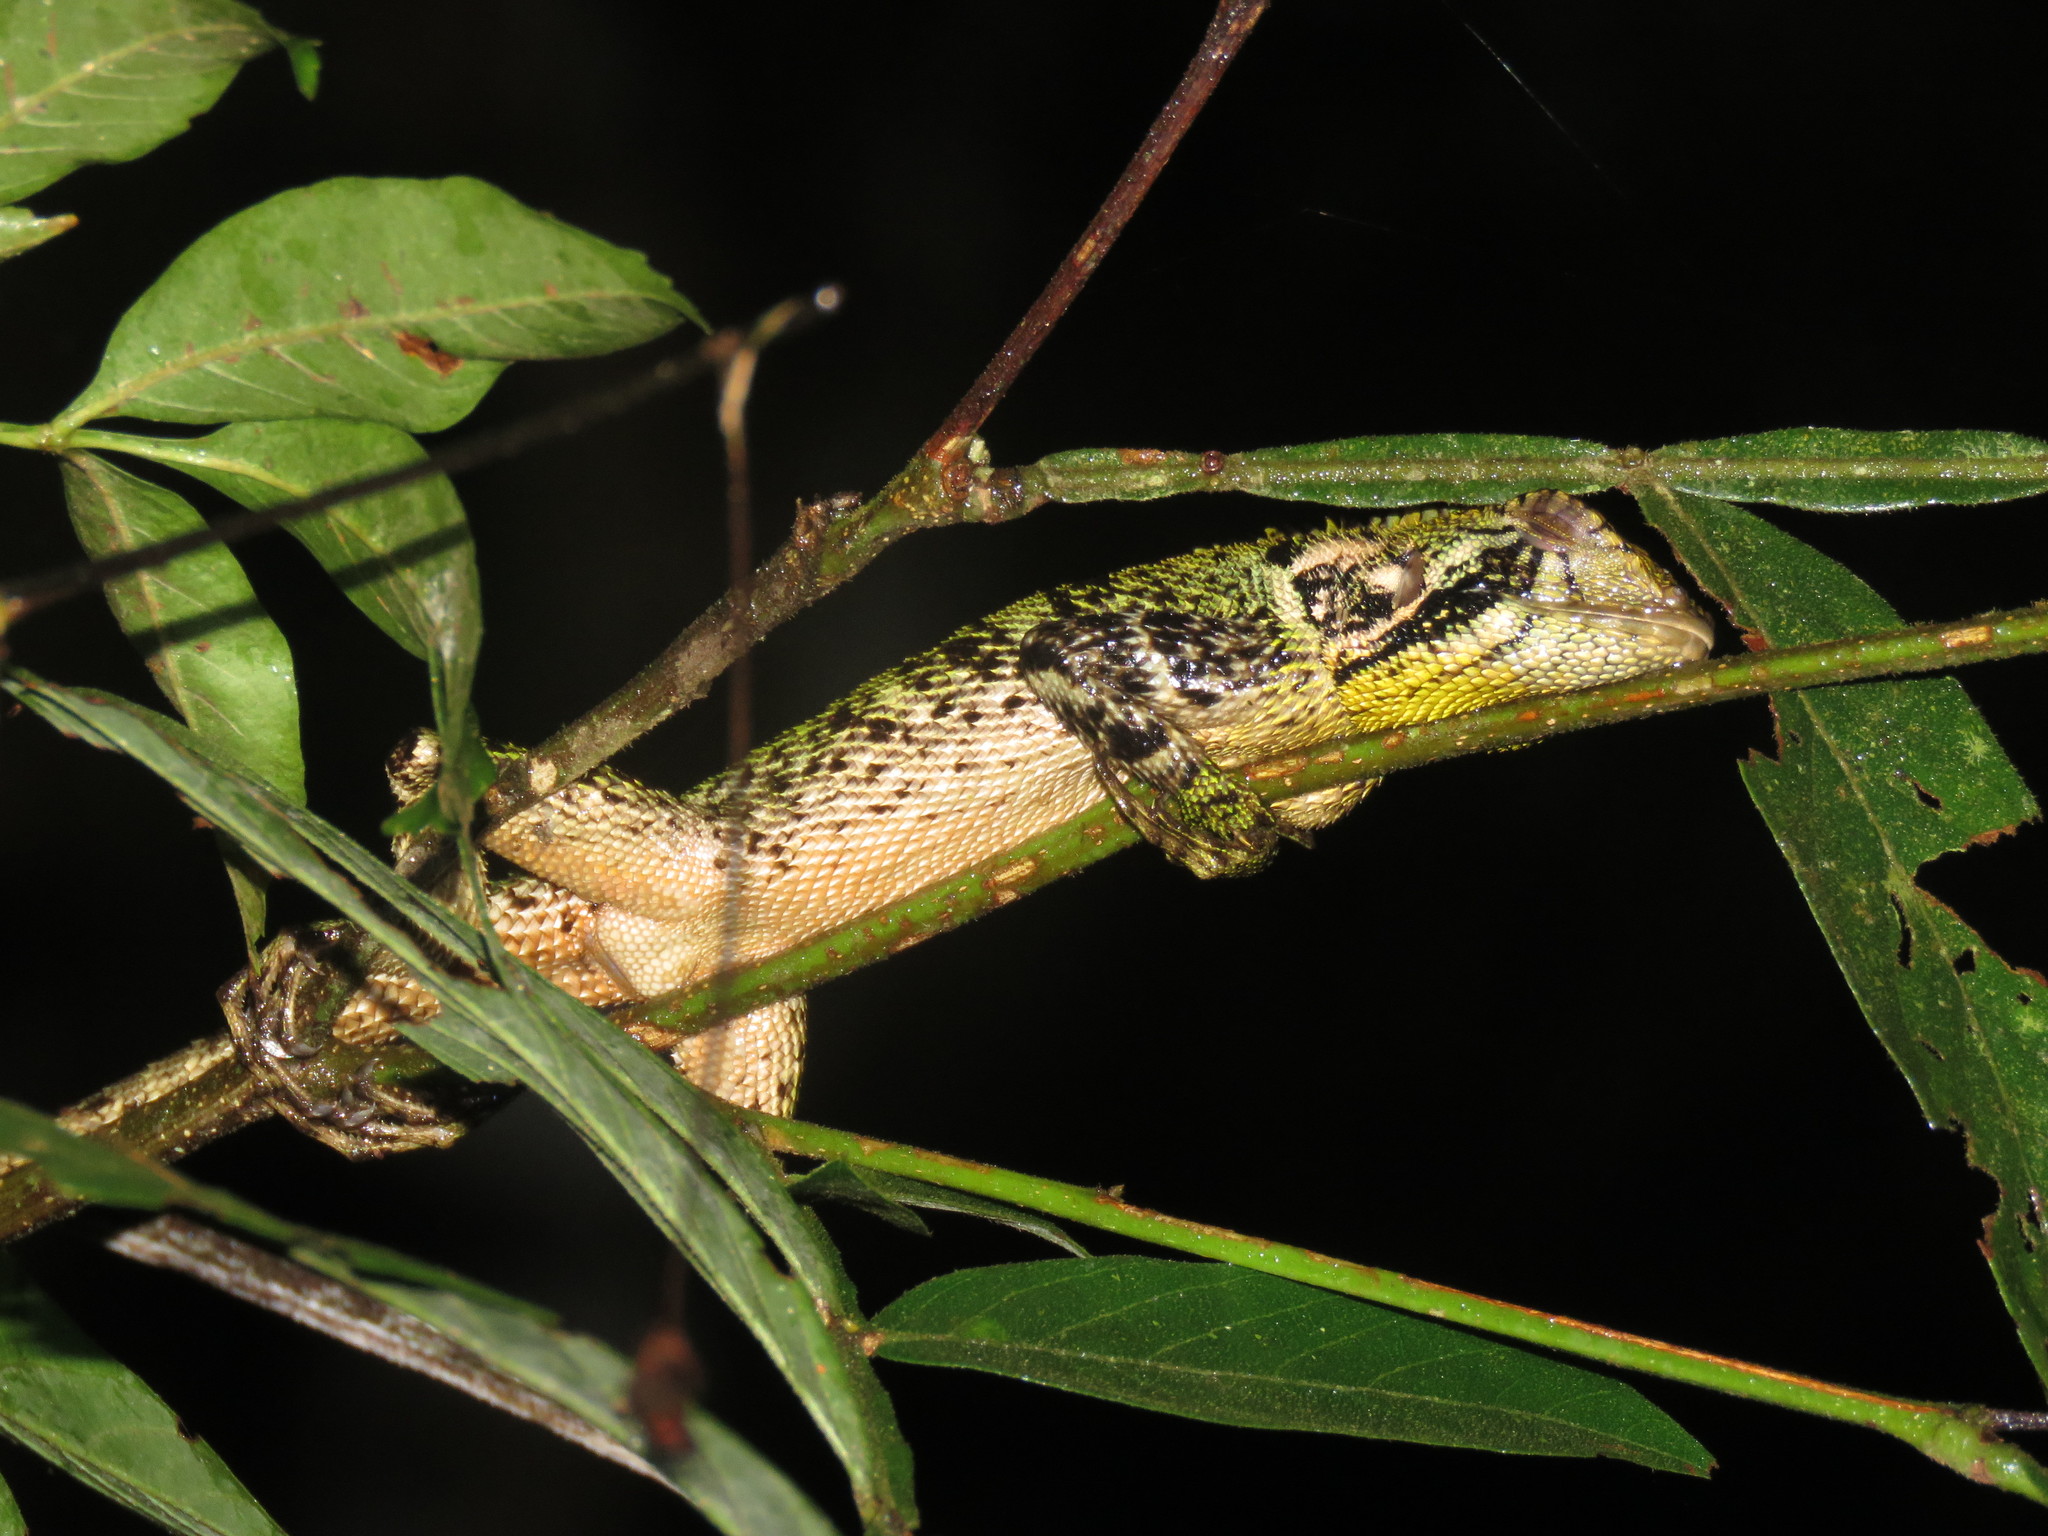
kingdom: Animalia
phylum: Chordata
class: Squamata
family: Tropiduridae
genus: Plica
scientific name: Plica umbra
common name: Harlequin racerunner
